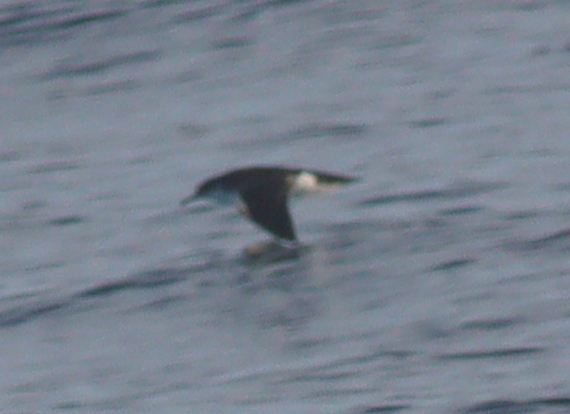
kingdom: Animalia
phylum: Chordata
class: Aves
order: Procellariiformes
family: Procellariidae
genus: Puffinus
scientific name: Puffinus puffinus
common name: Manx shearwater
